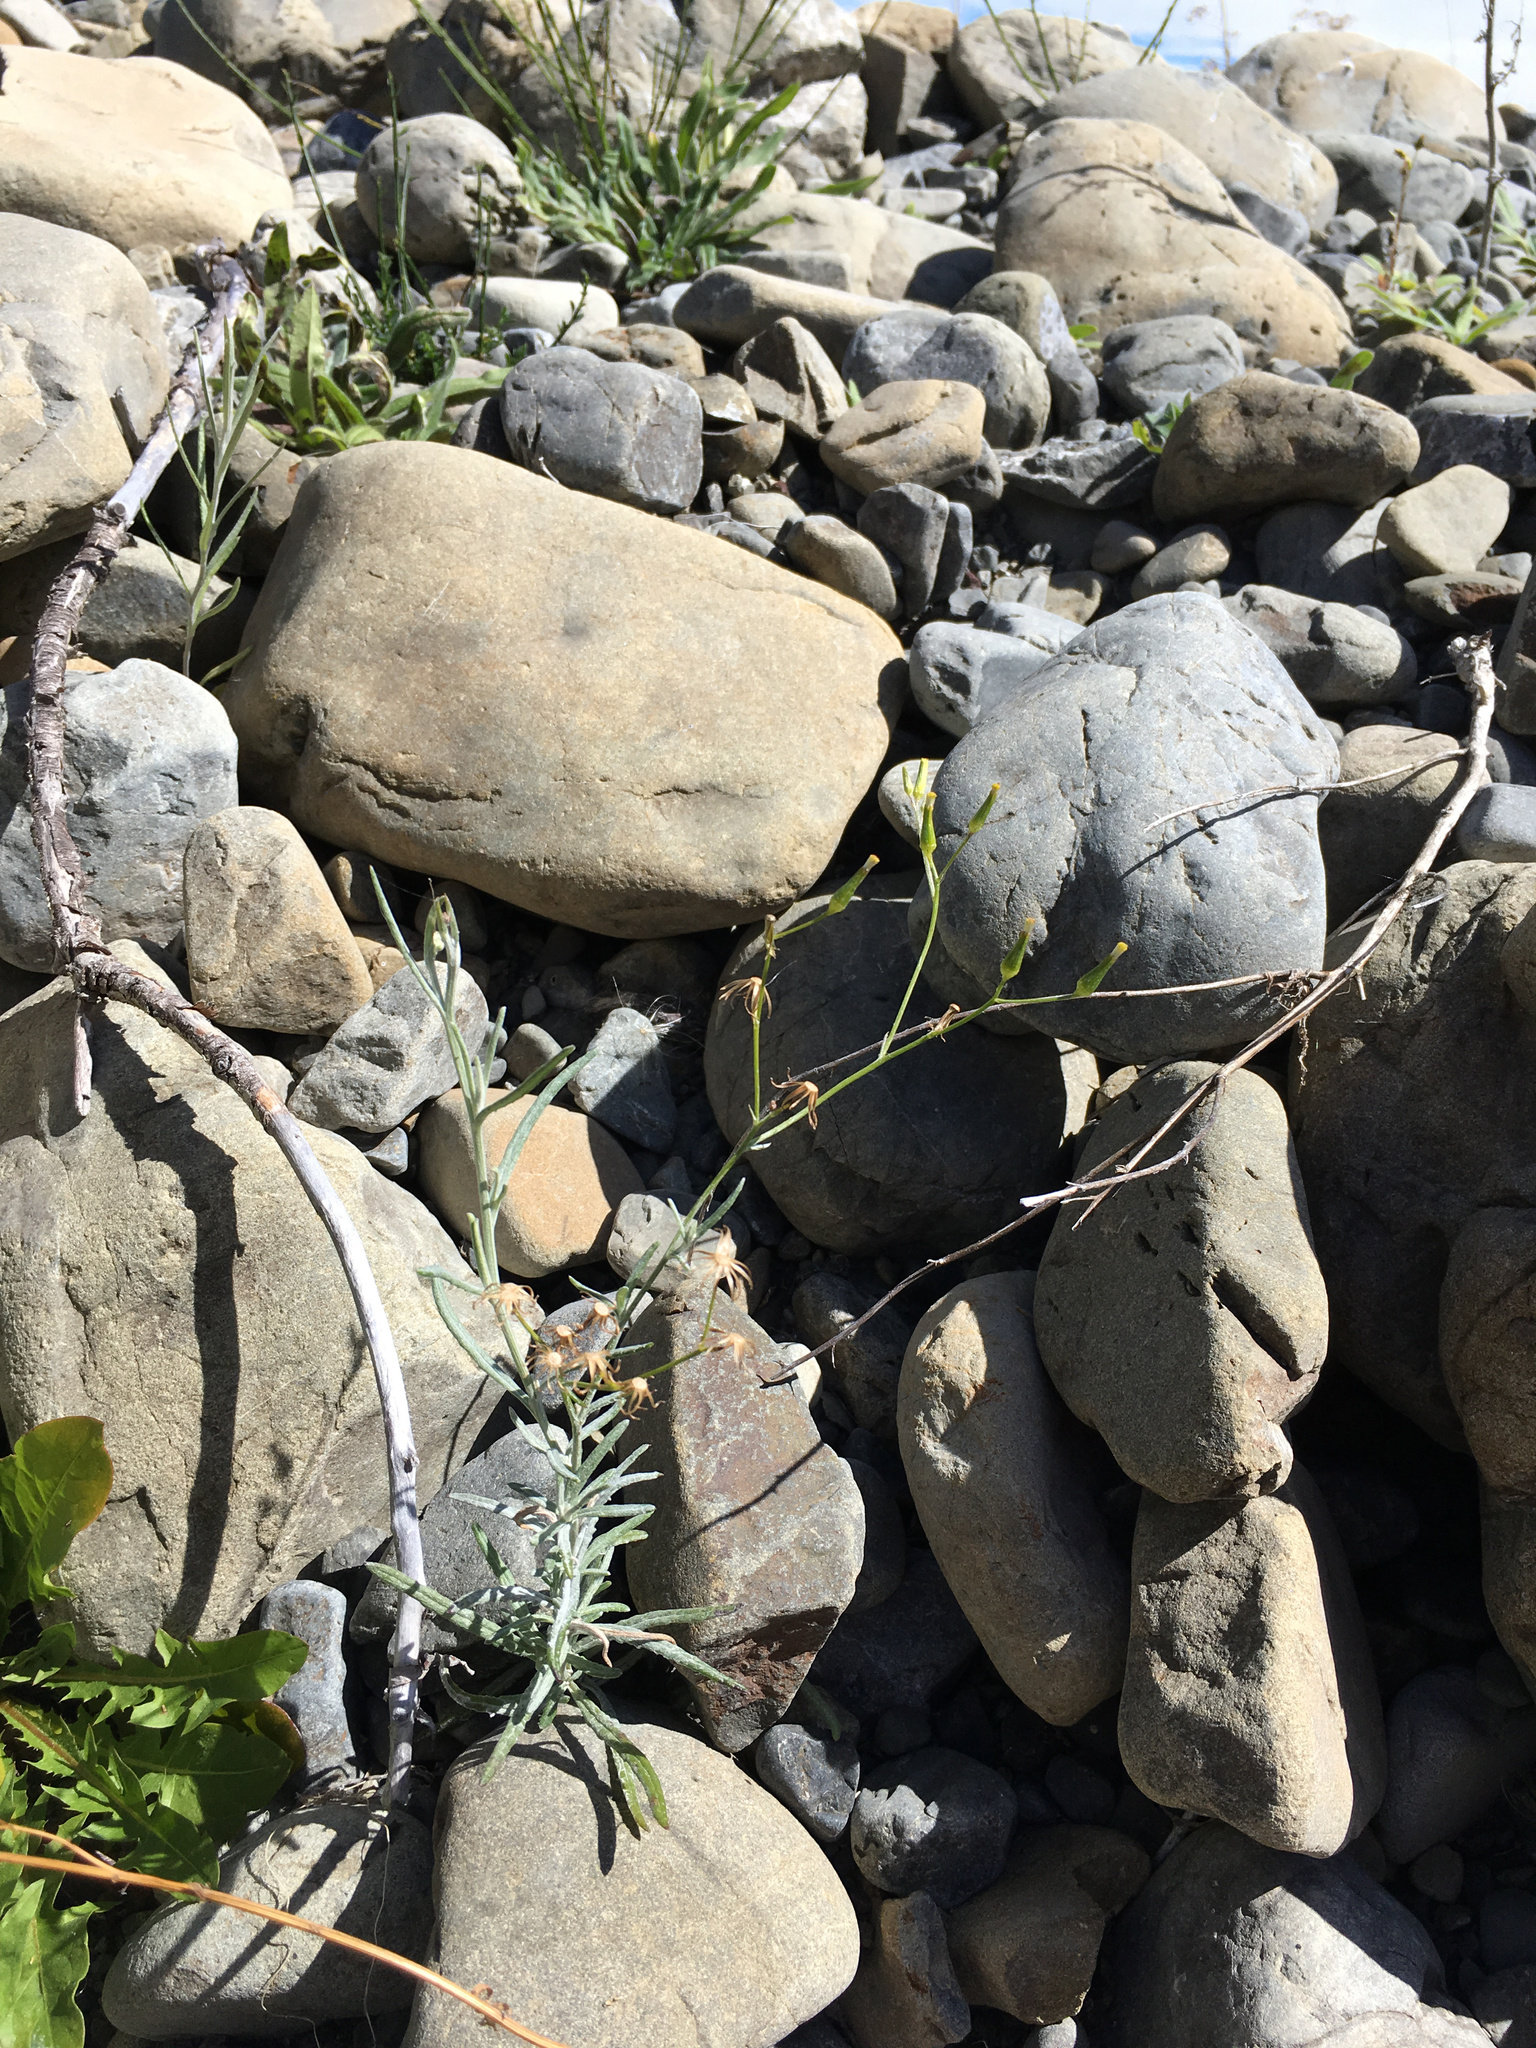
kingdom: Plantae
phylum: Tracheophyta
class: Magnoliopsida
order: Asterales
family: Asteraceae
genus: Senecio
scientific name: Senecio quadridentatus
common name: Cotton fireweed
